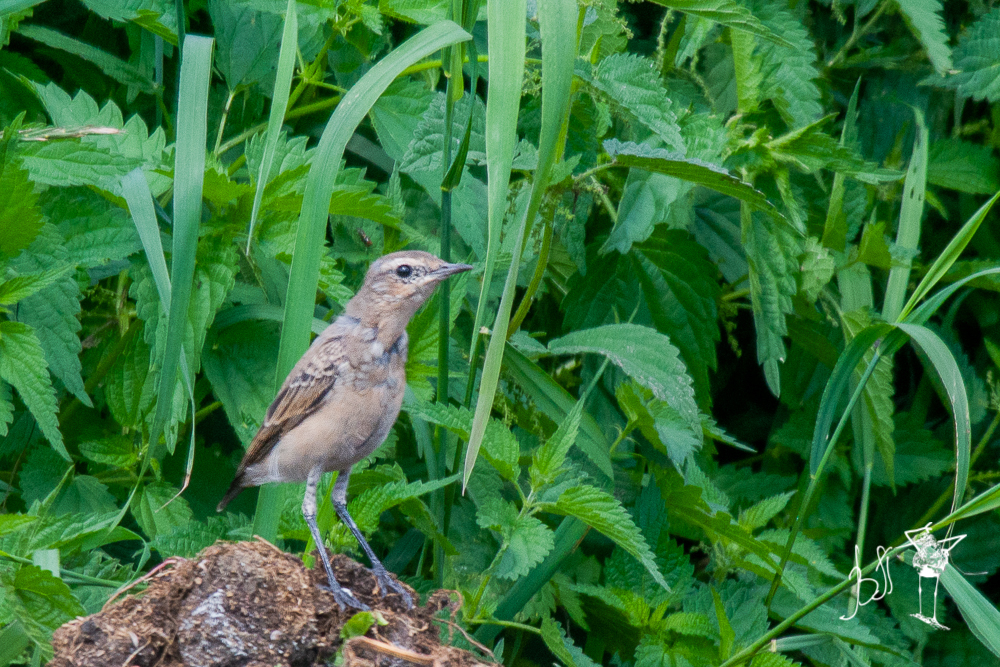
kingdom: Animalia
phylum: Chordata
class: Aves
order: Passeriformes
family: Muscicapidae
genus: Oenanthe
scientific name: Oenanthe oenanthe
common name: Northern wheatear
